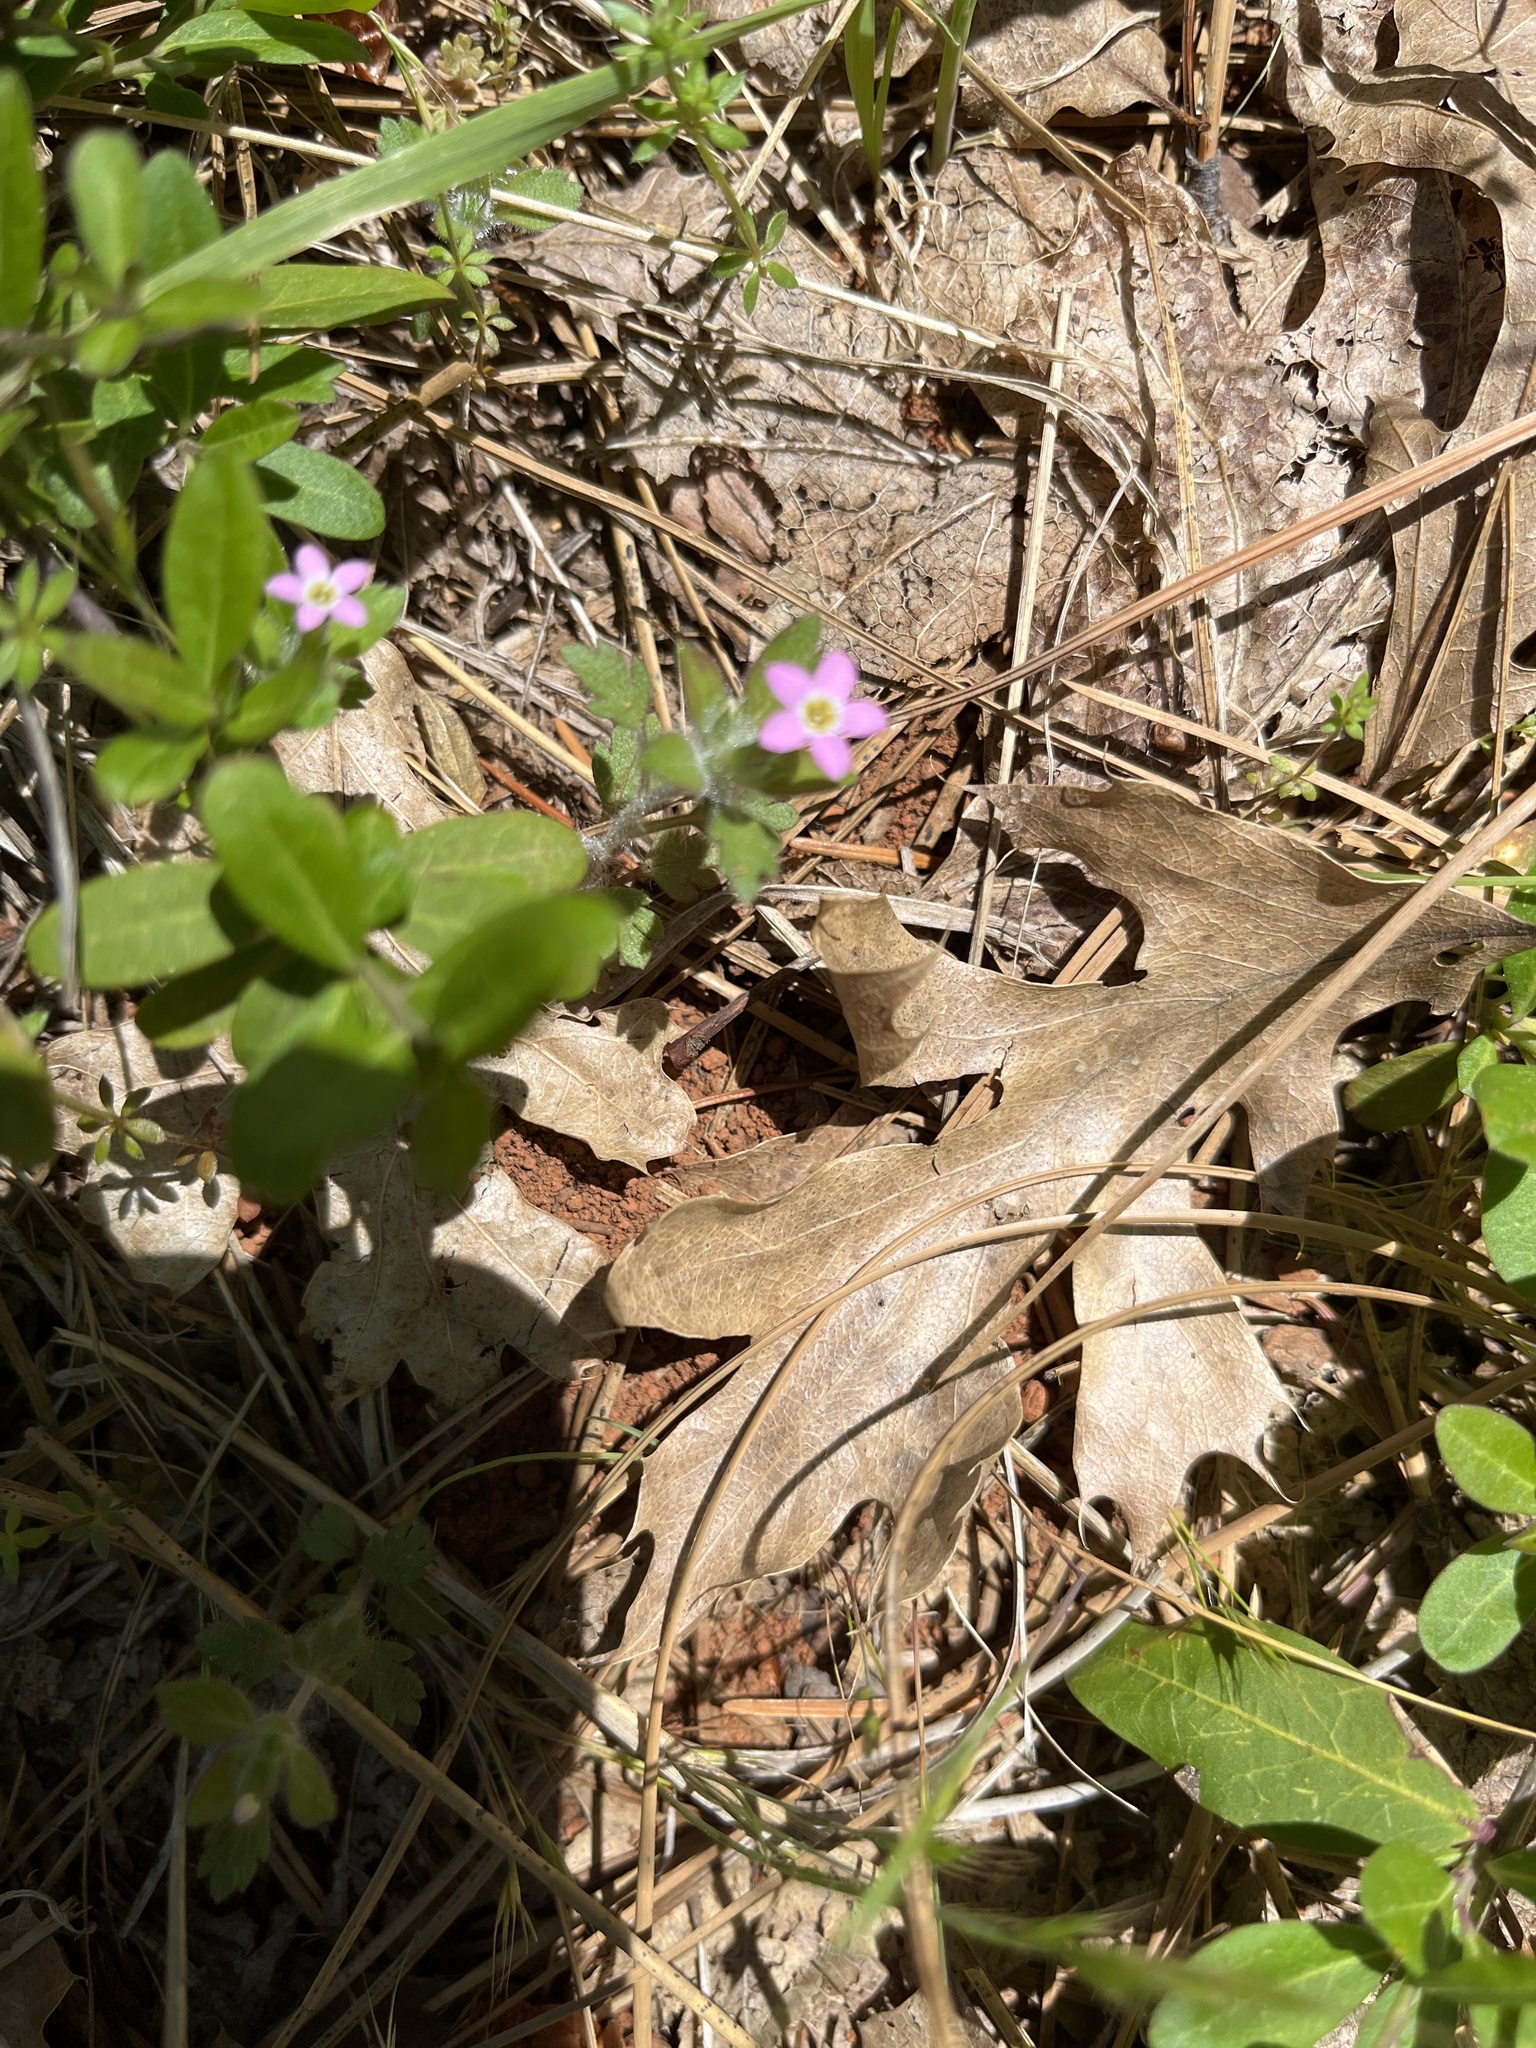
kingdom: Plantae
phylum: Tracheophyta
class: Magnoliopsida
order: Ericales
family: Polemoniaceae
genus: Collomia
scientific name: Collomia heterophylla
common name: Variable-leaved collomia
